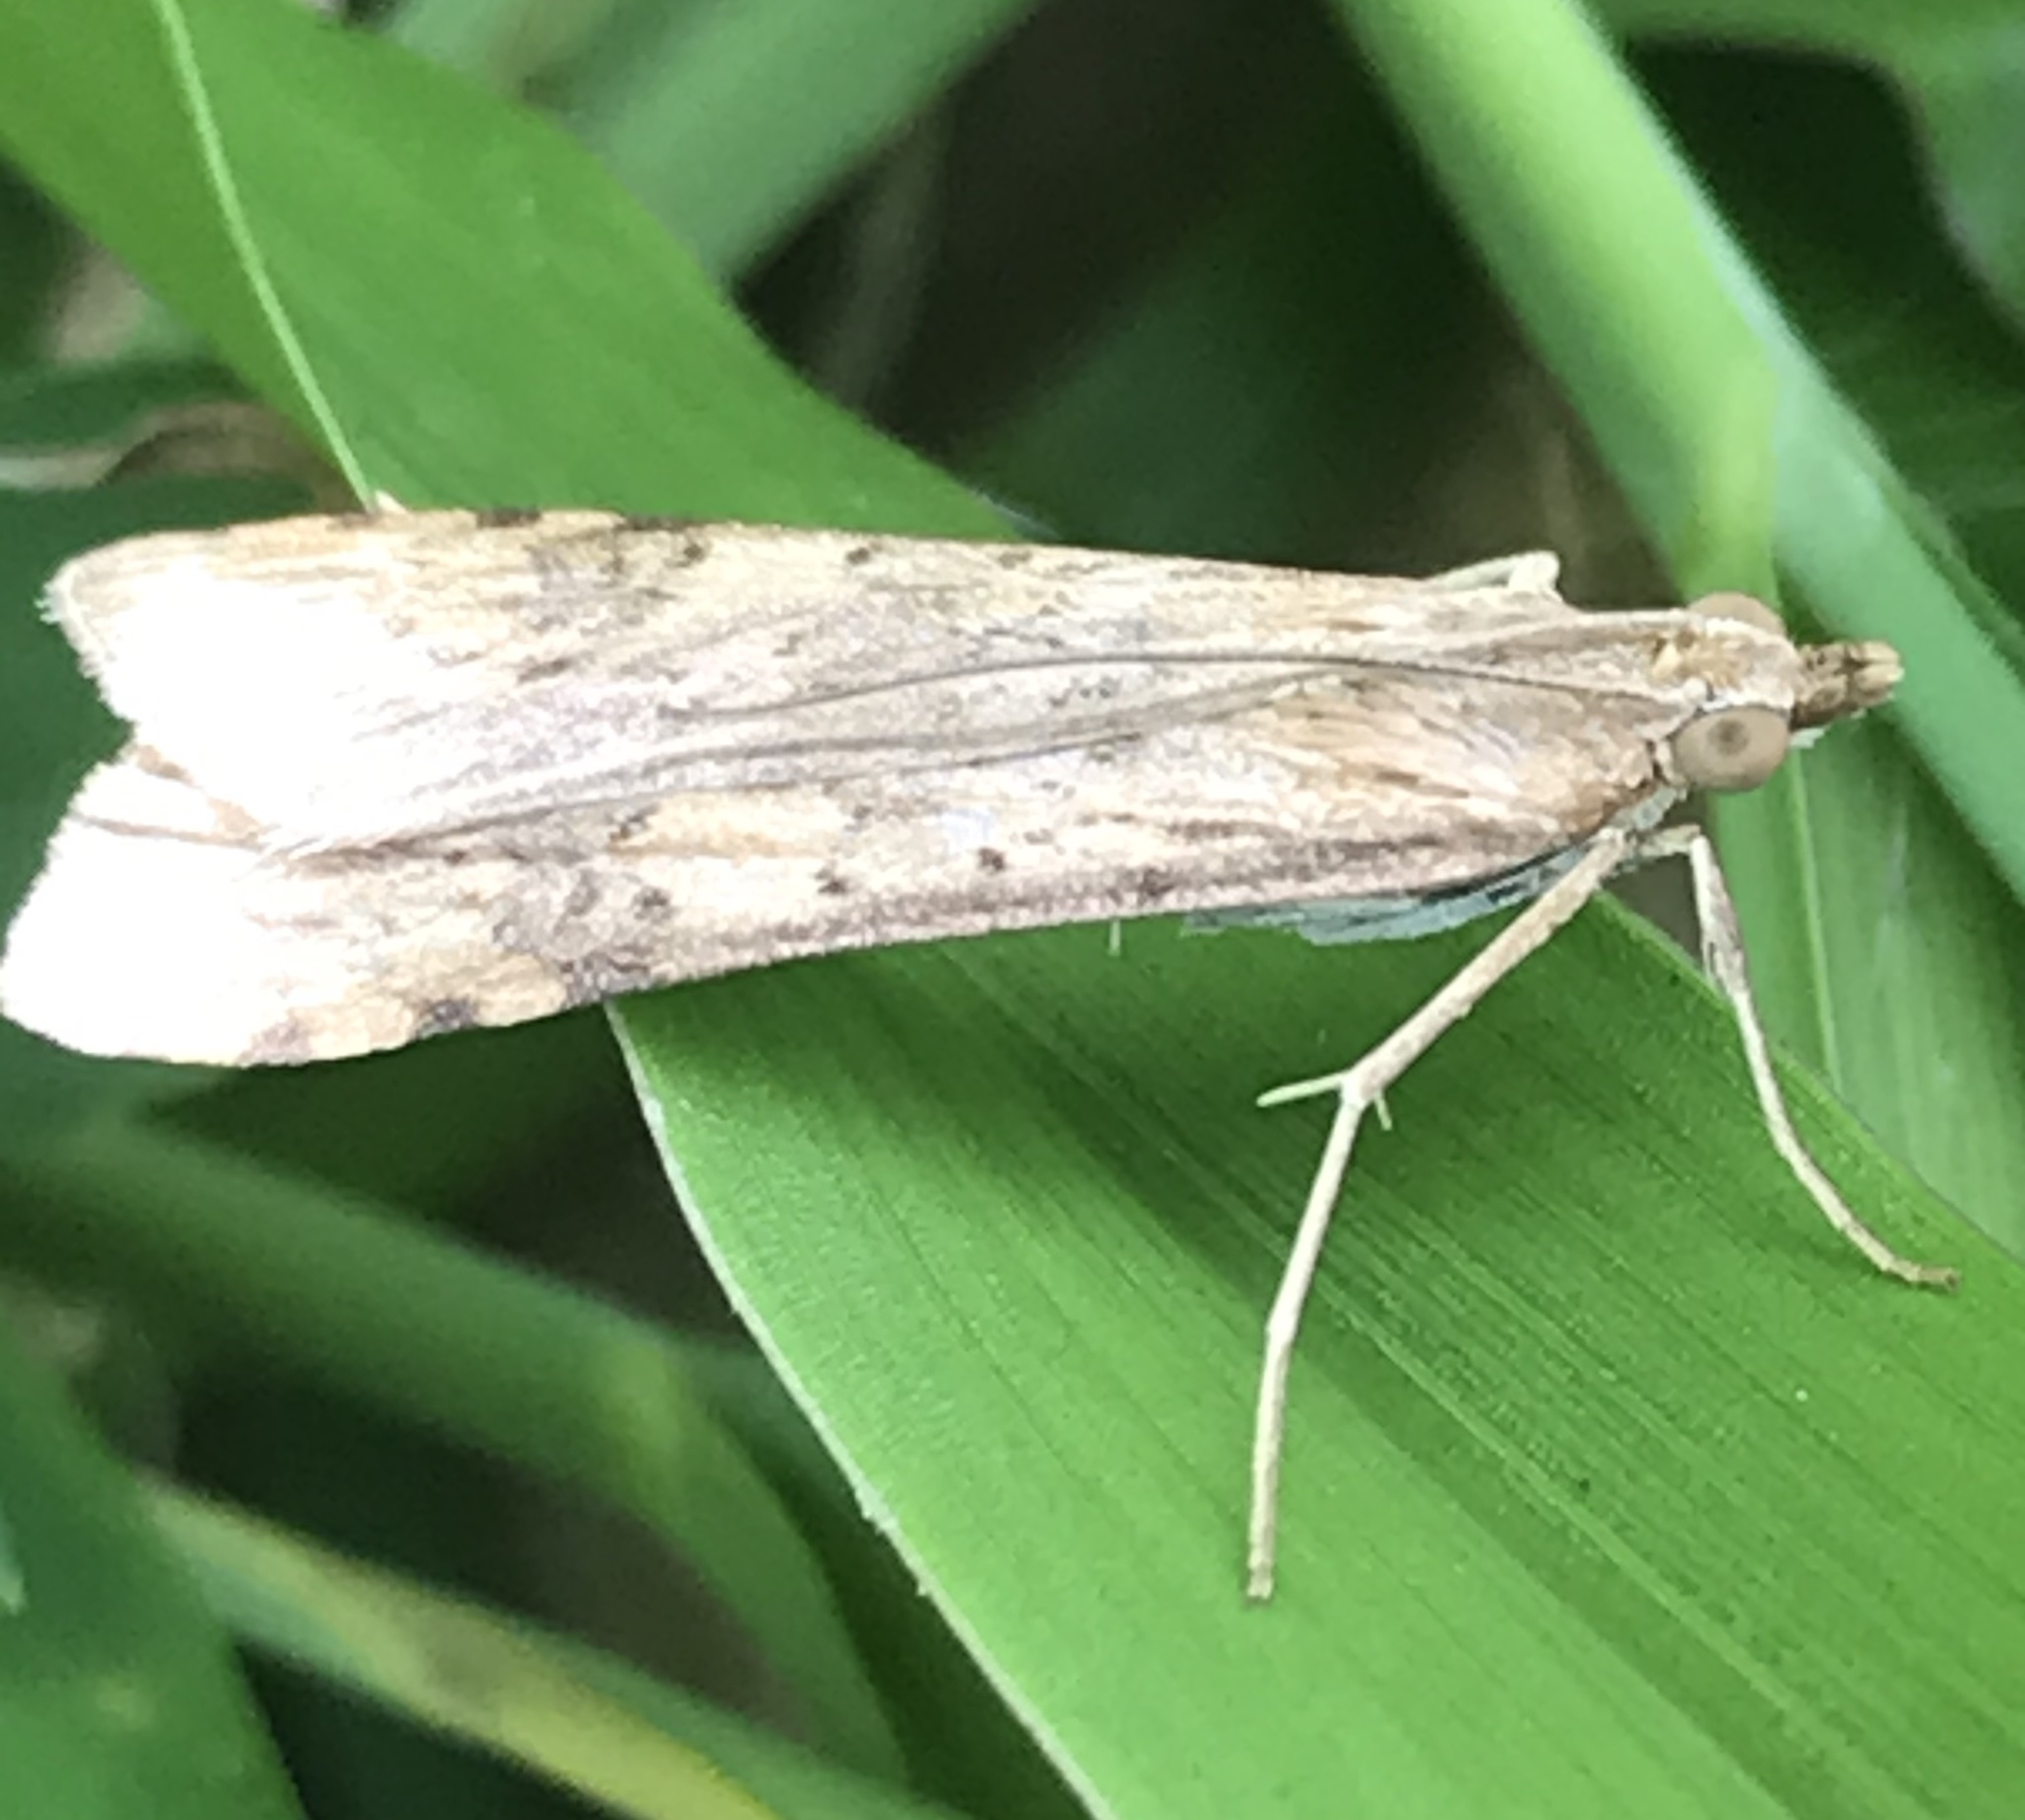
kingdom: Animalia
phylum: Arthropoda
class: Insecta
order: Lepidoptera
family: Crambidae
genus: Nomophila
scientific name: Nomophila nearctica
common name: American rush veneer
